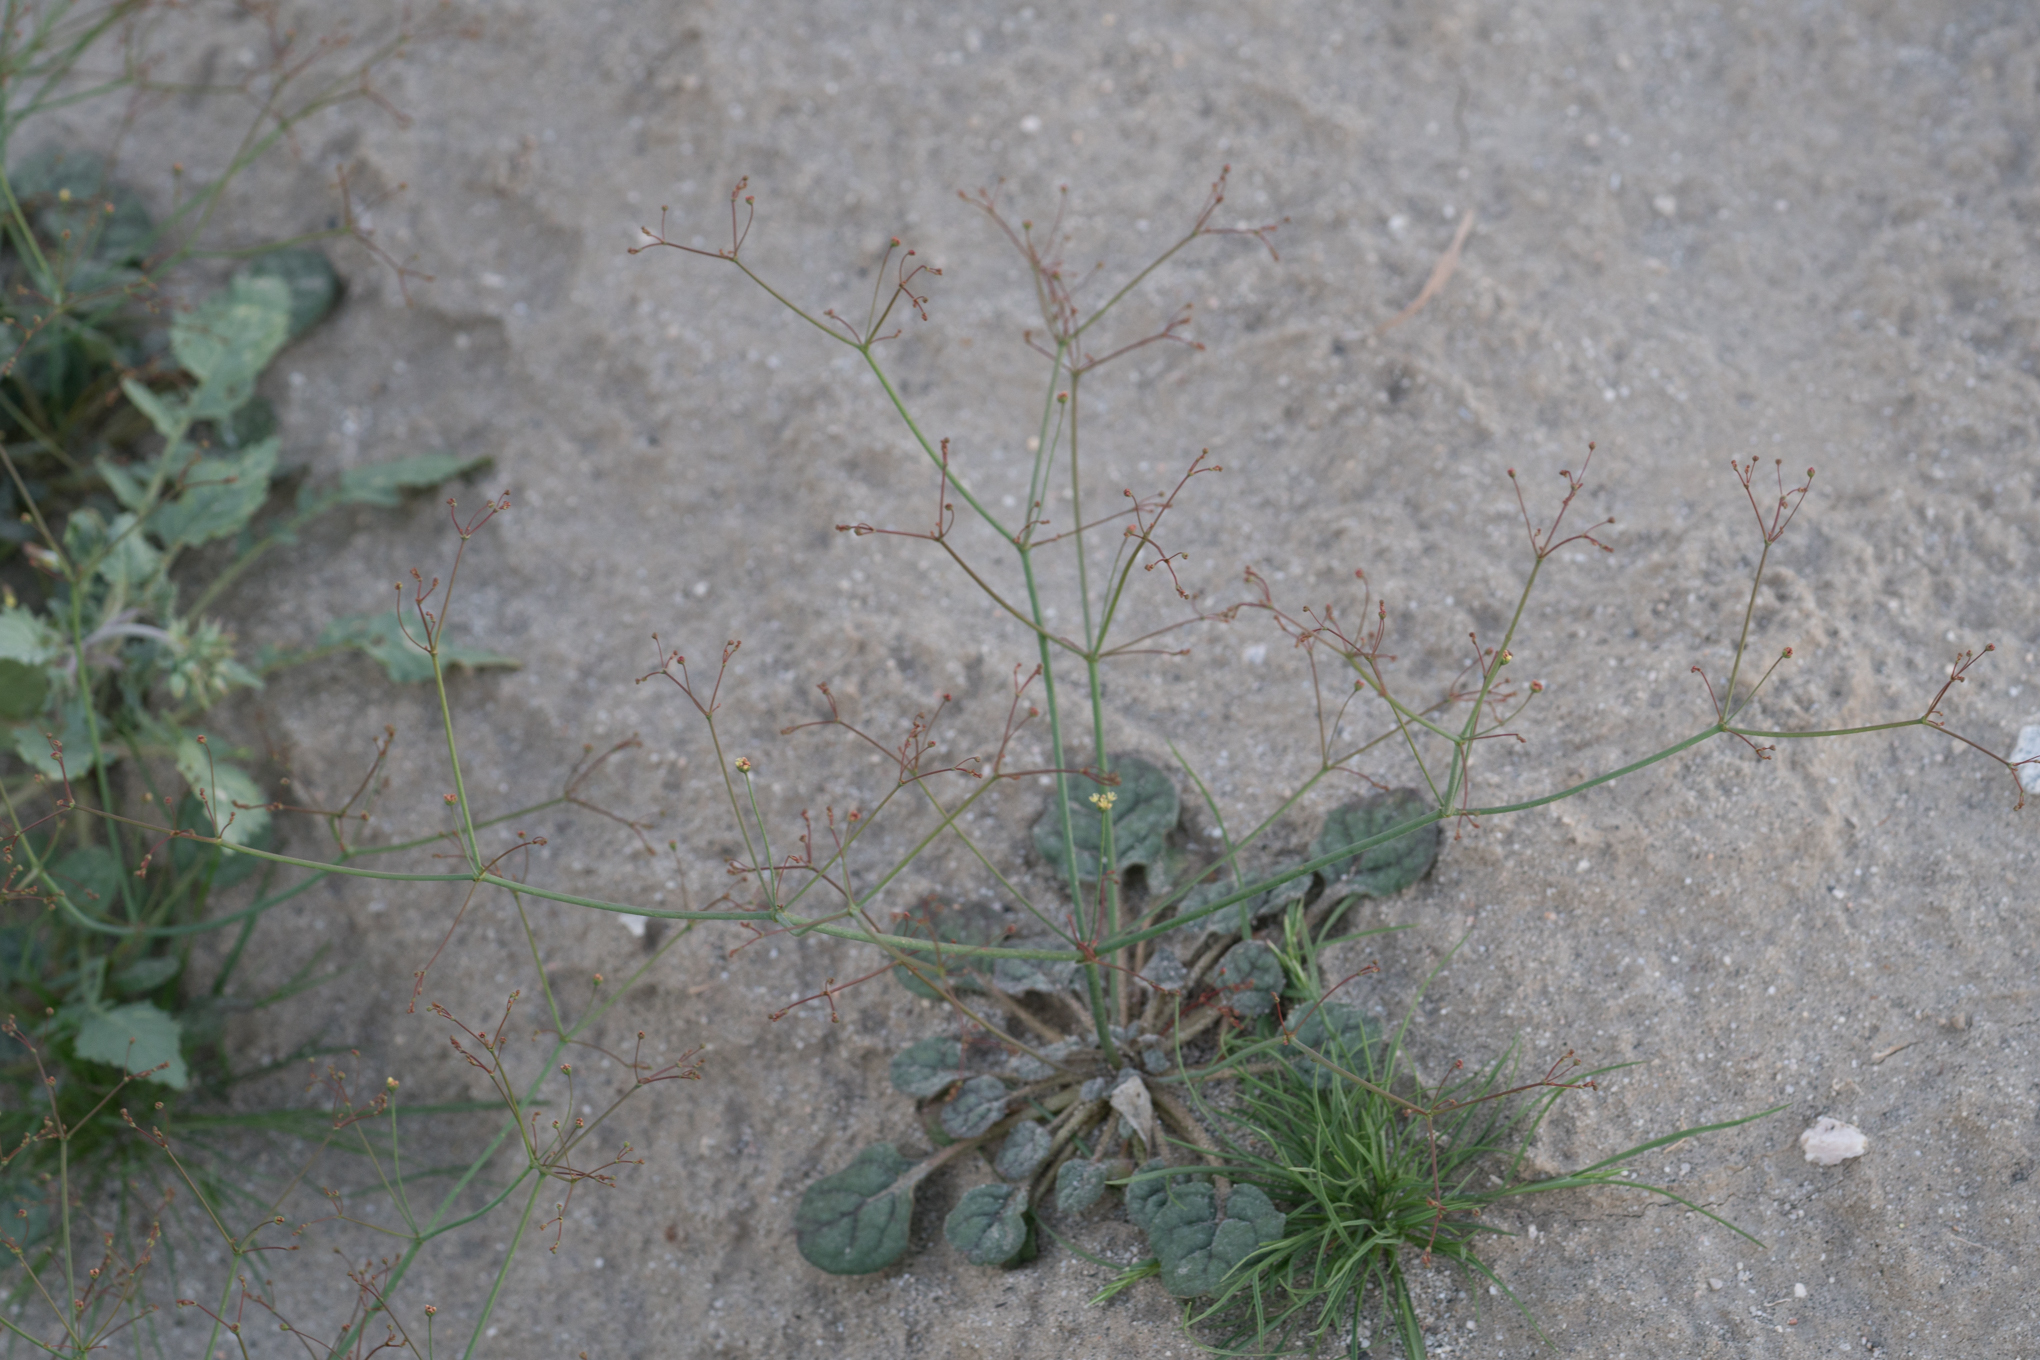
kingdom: Plantae
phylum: Tracheophyta
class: Magnoliopsida
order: Caryophyllales
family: Polygonaceae
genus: Eriogonum
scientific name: Eriogonum thomasii
